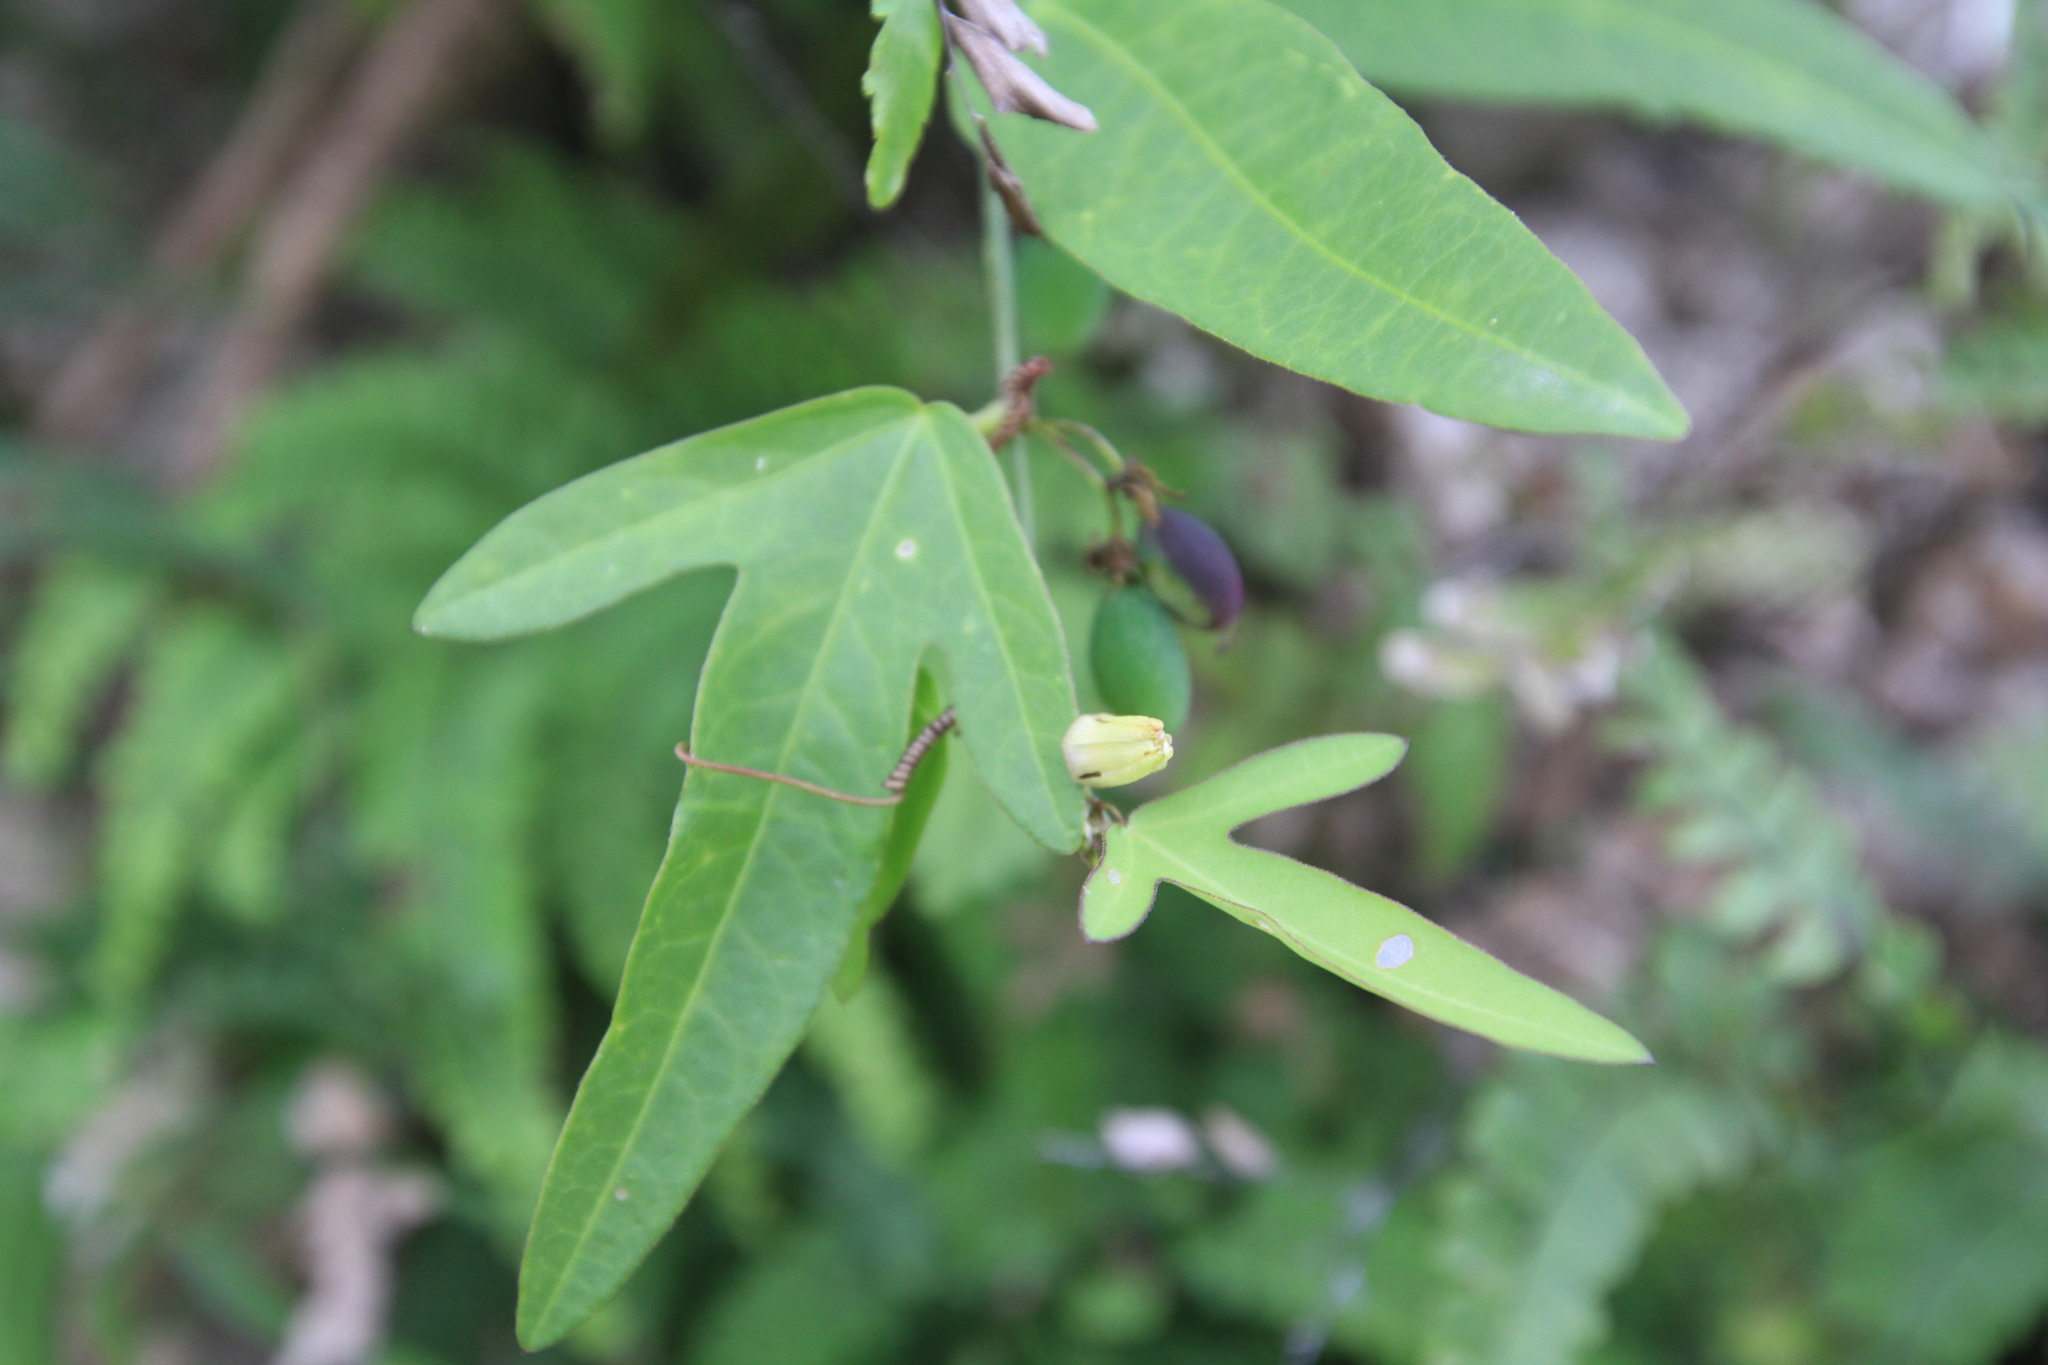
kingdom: Plantae
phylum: Tracheophyta
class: Magnoliopsida
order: Malpighiales
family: Passifloraceae
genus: Passiflora
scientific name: Passiflora suberosa
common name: Wild passionfruit
